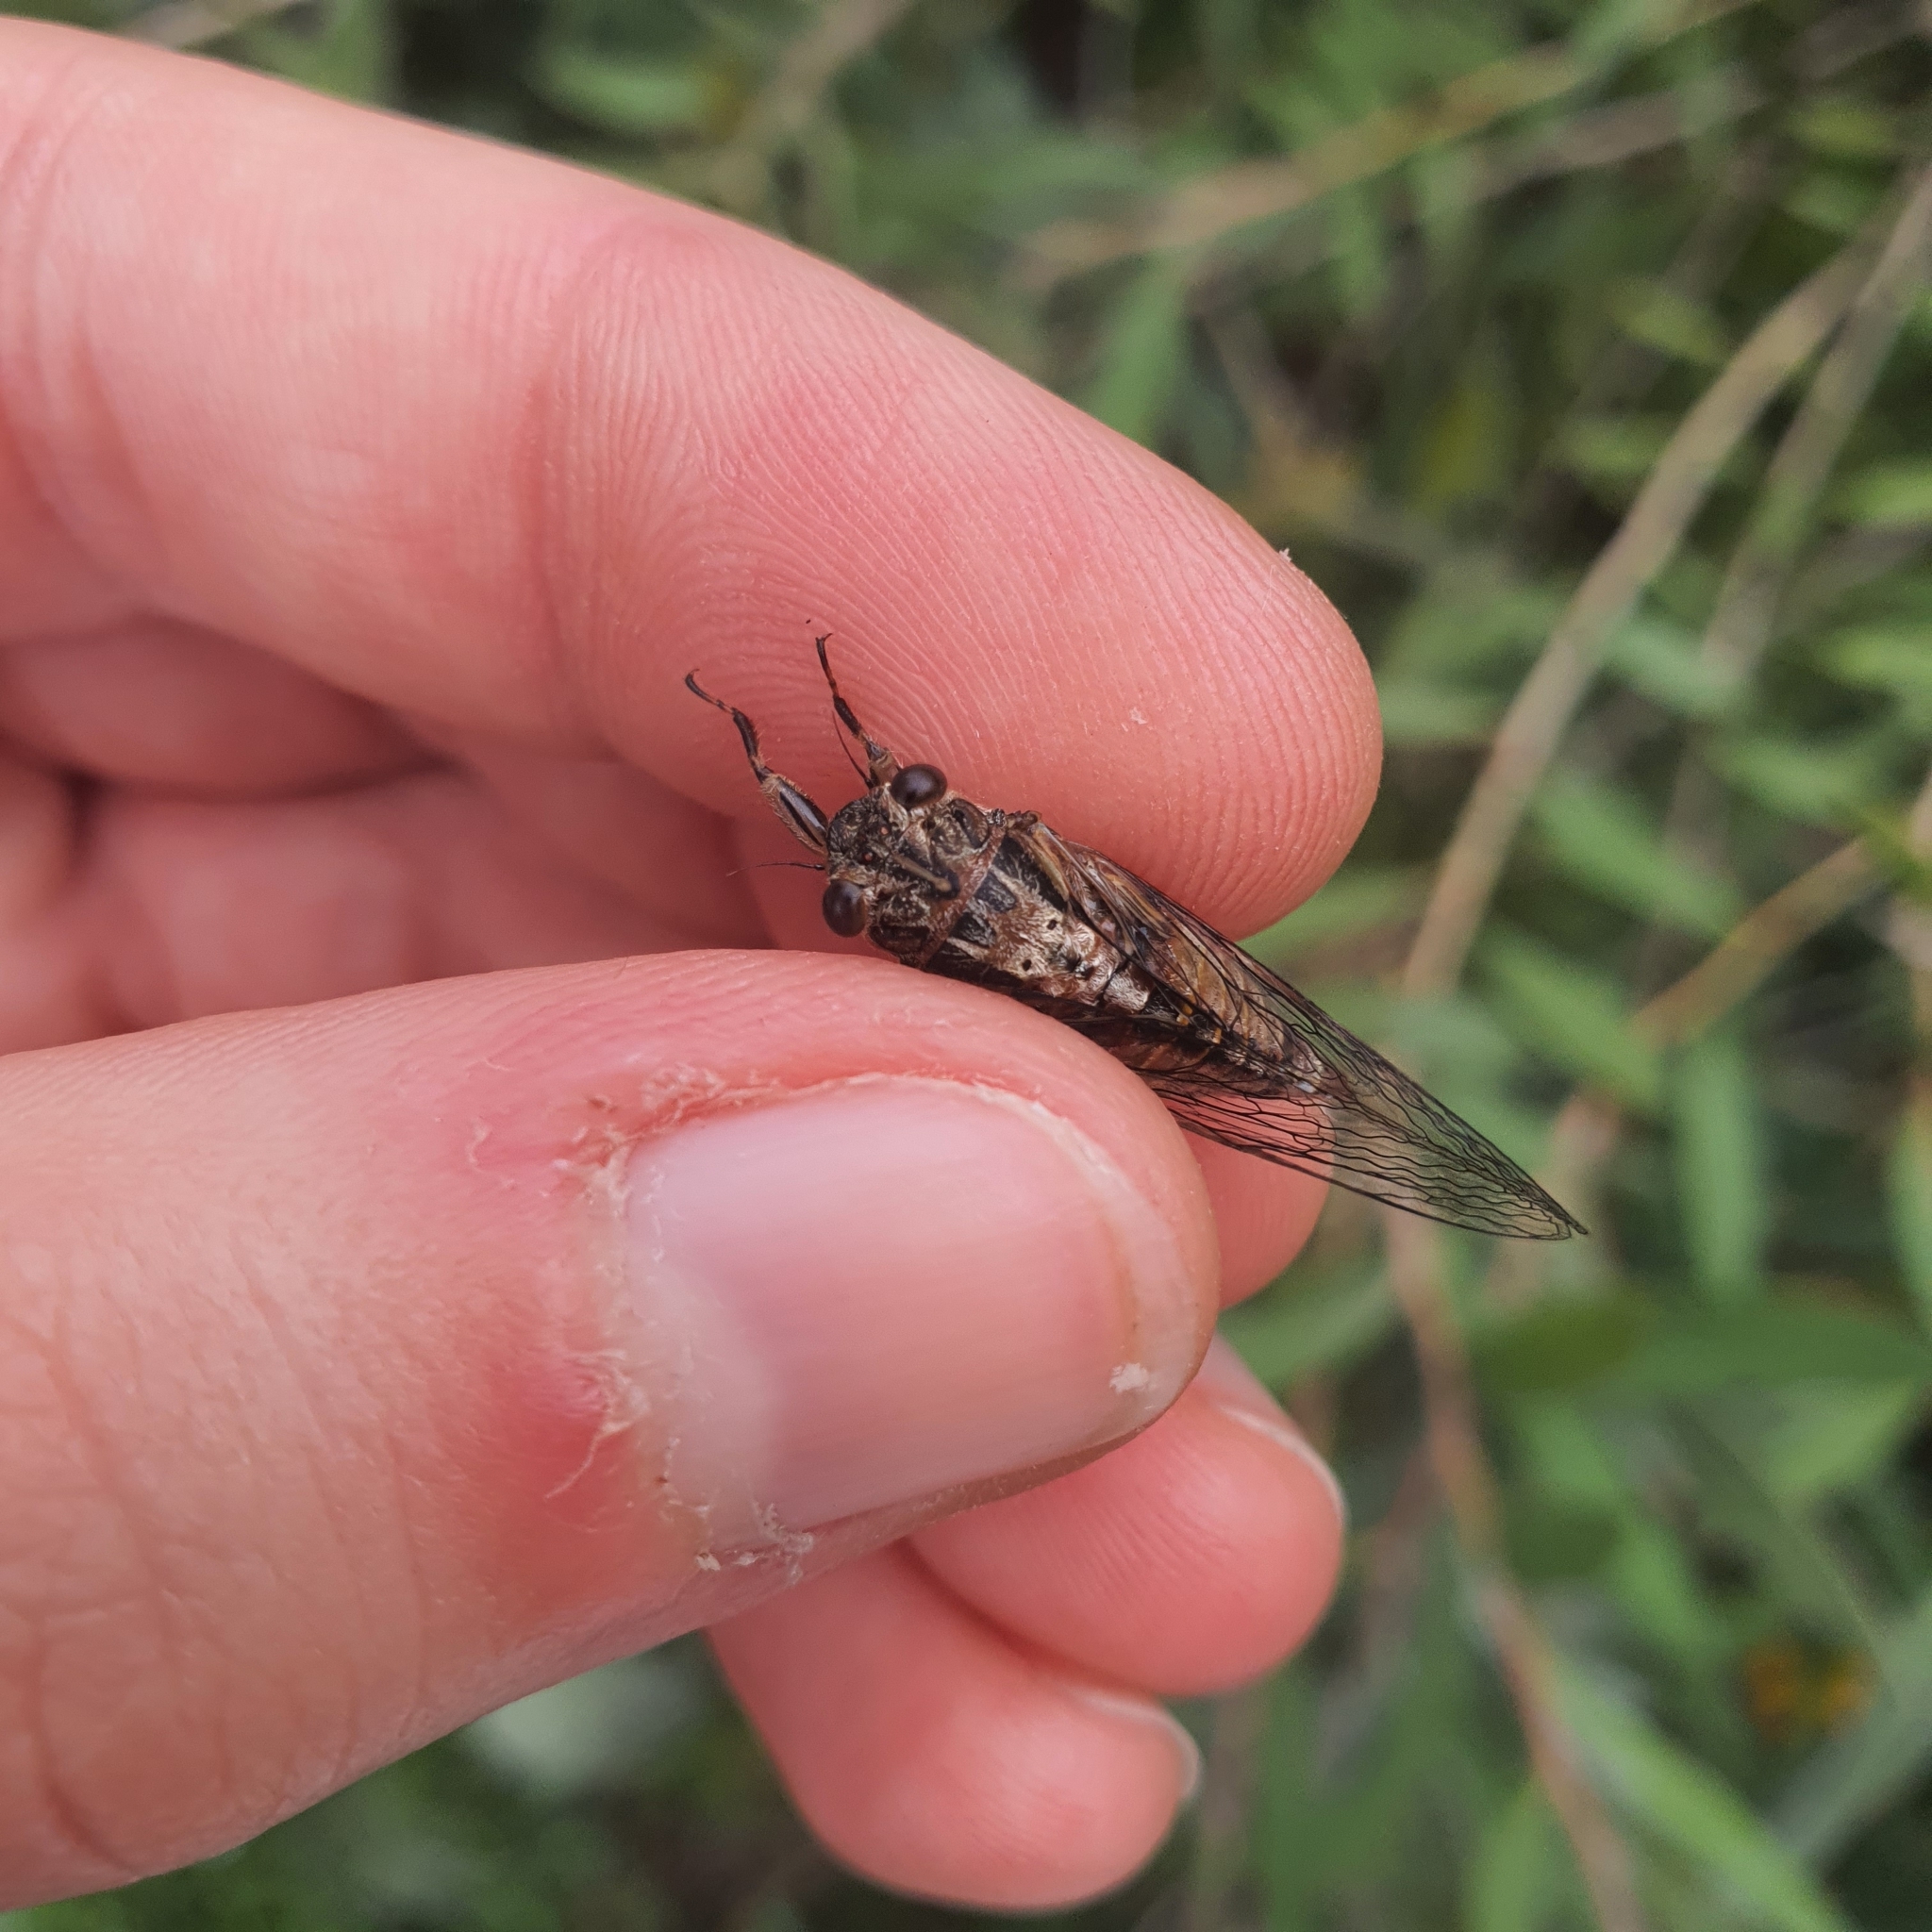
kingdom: Animalia
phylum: Arthropoda
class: Insecta
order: Hemiptera
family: Cicadidae
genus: Yoyetta
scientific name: Yoyetta celis
